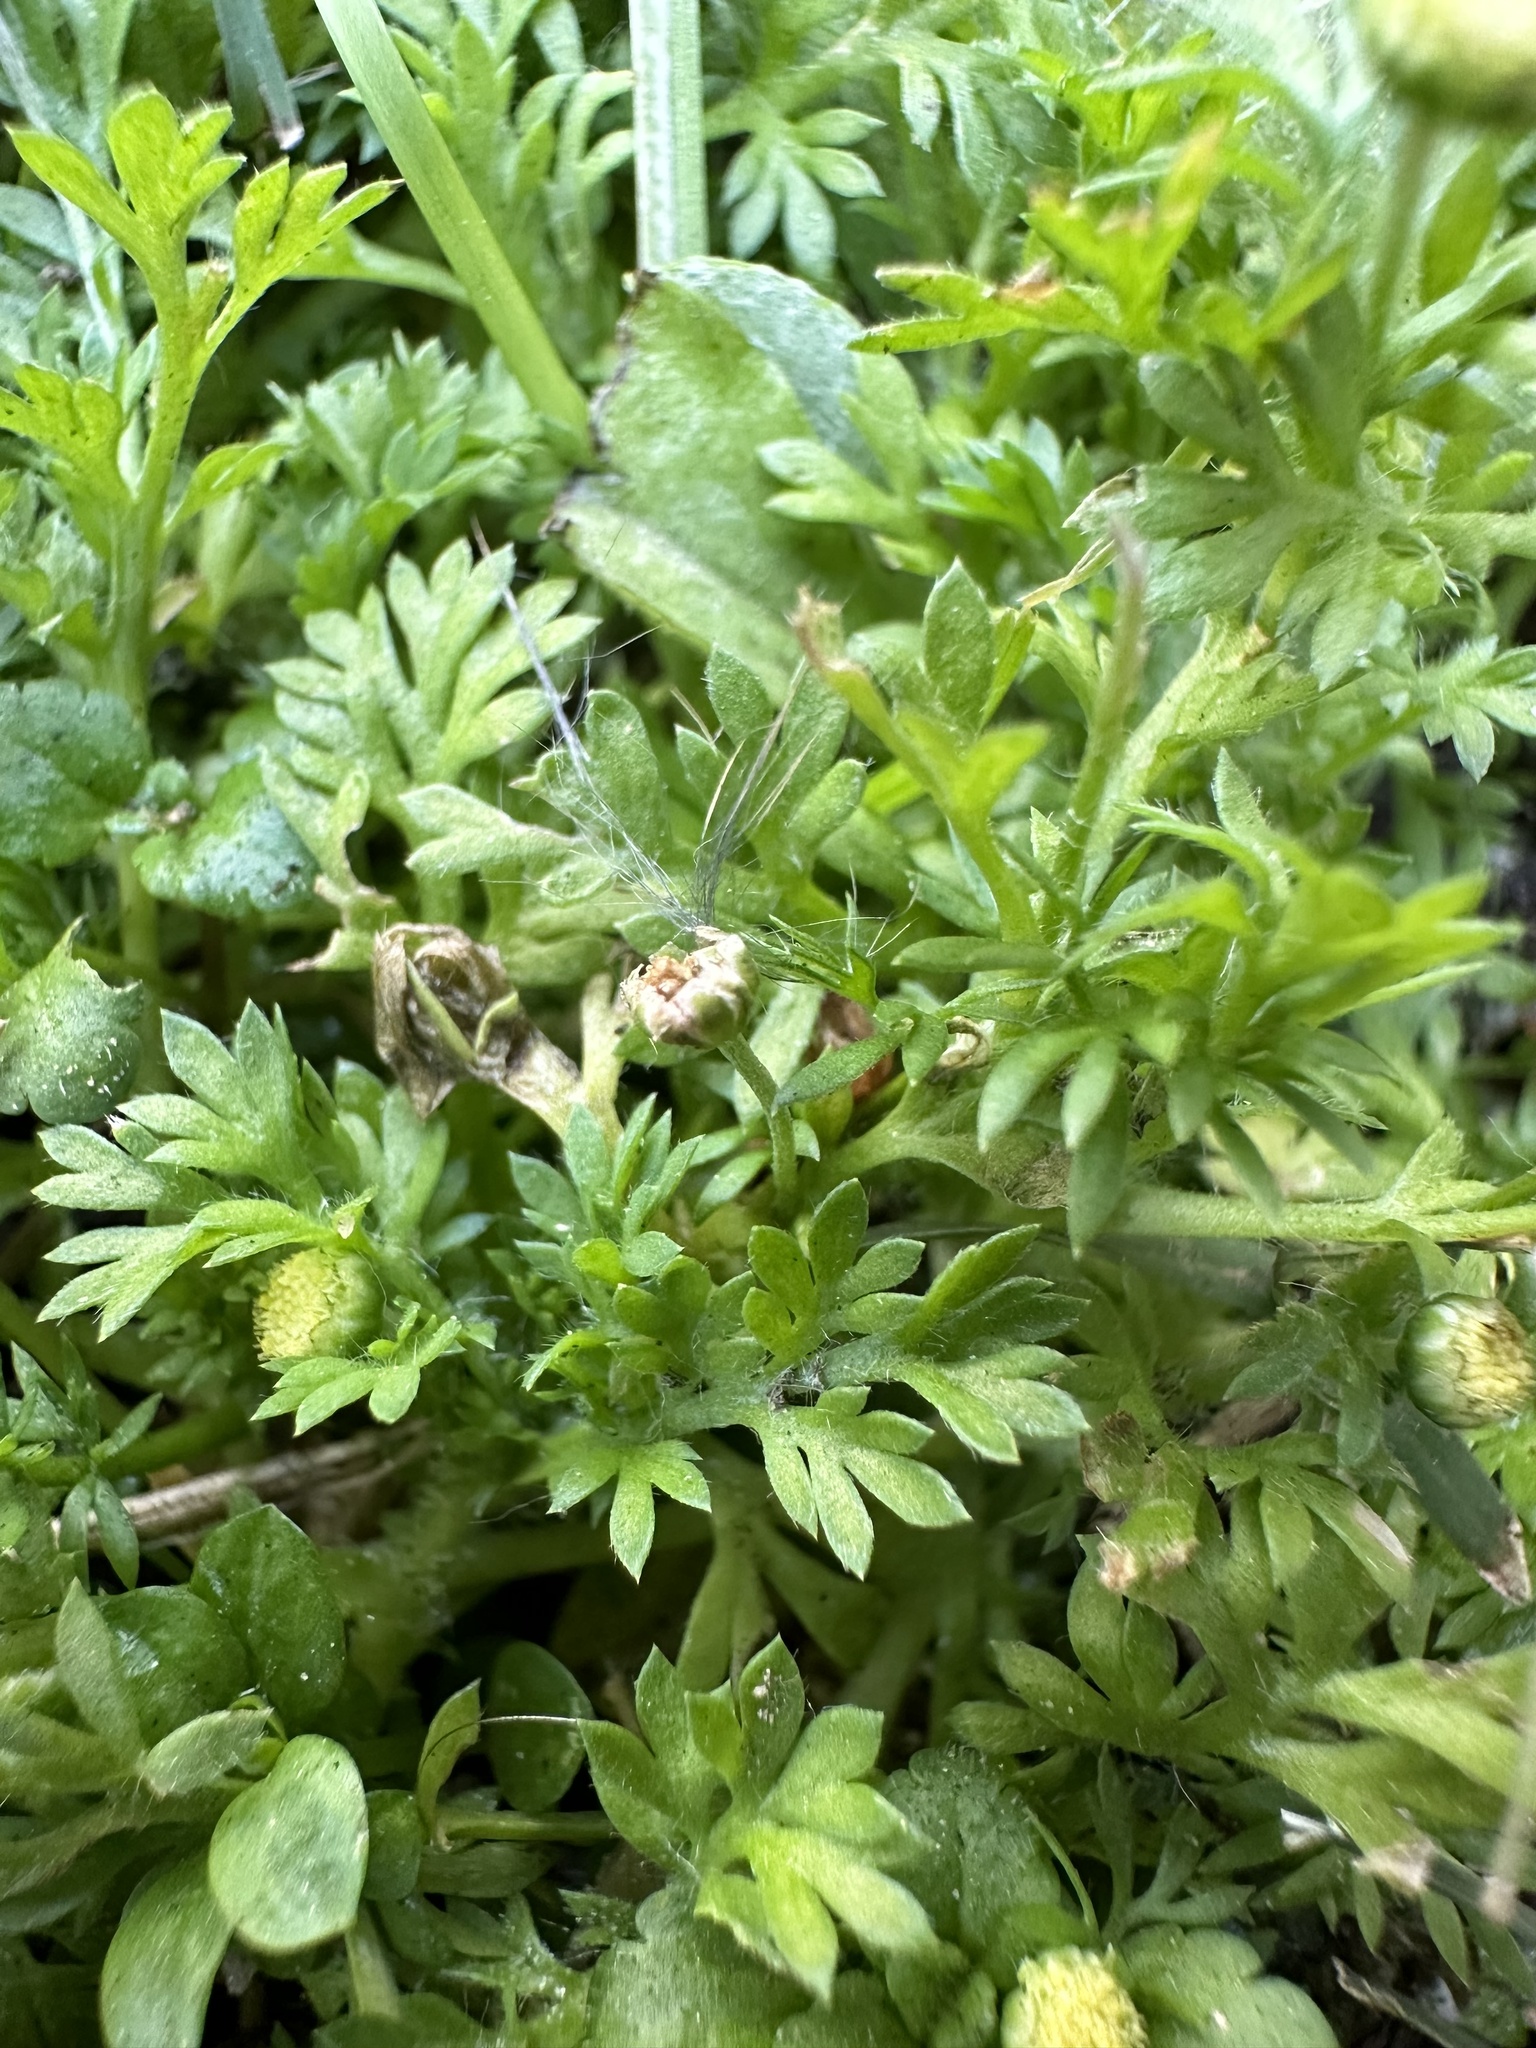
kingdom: Plantae
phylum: Tracheophyta
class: Magnoliopsida
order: Asterales
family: Asteraceae
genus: Cotula
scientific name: Cotula australis
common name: Australian waterbuttons
